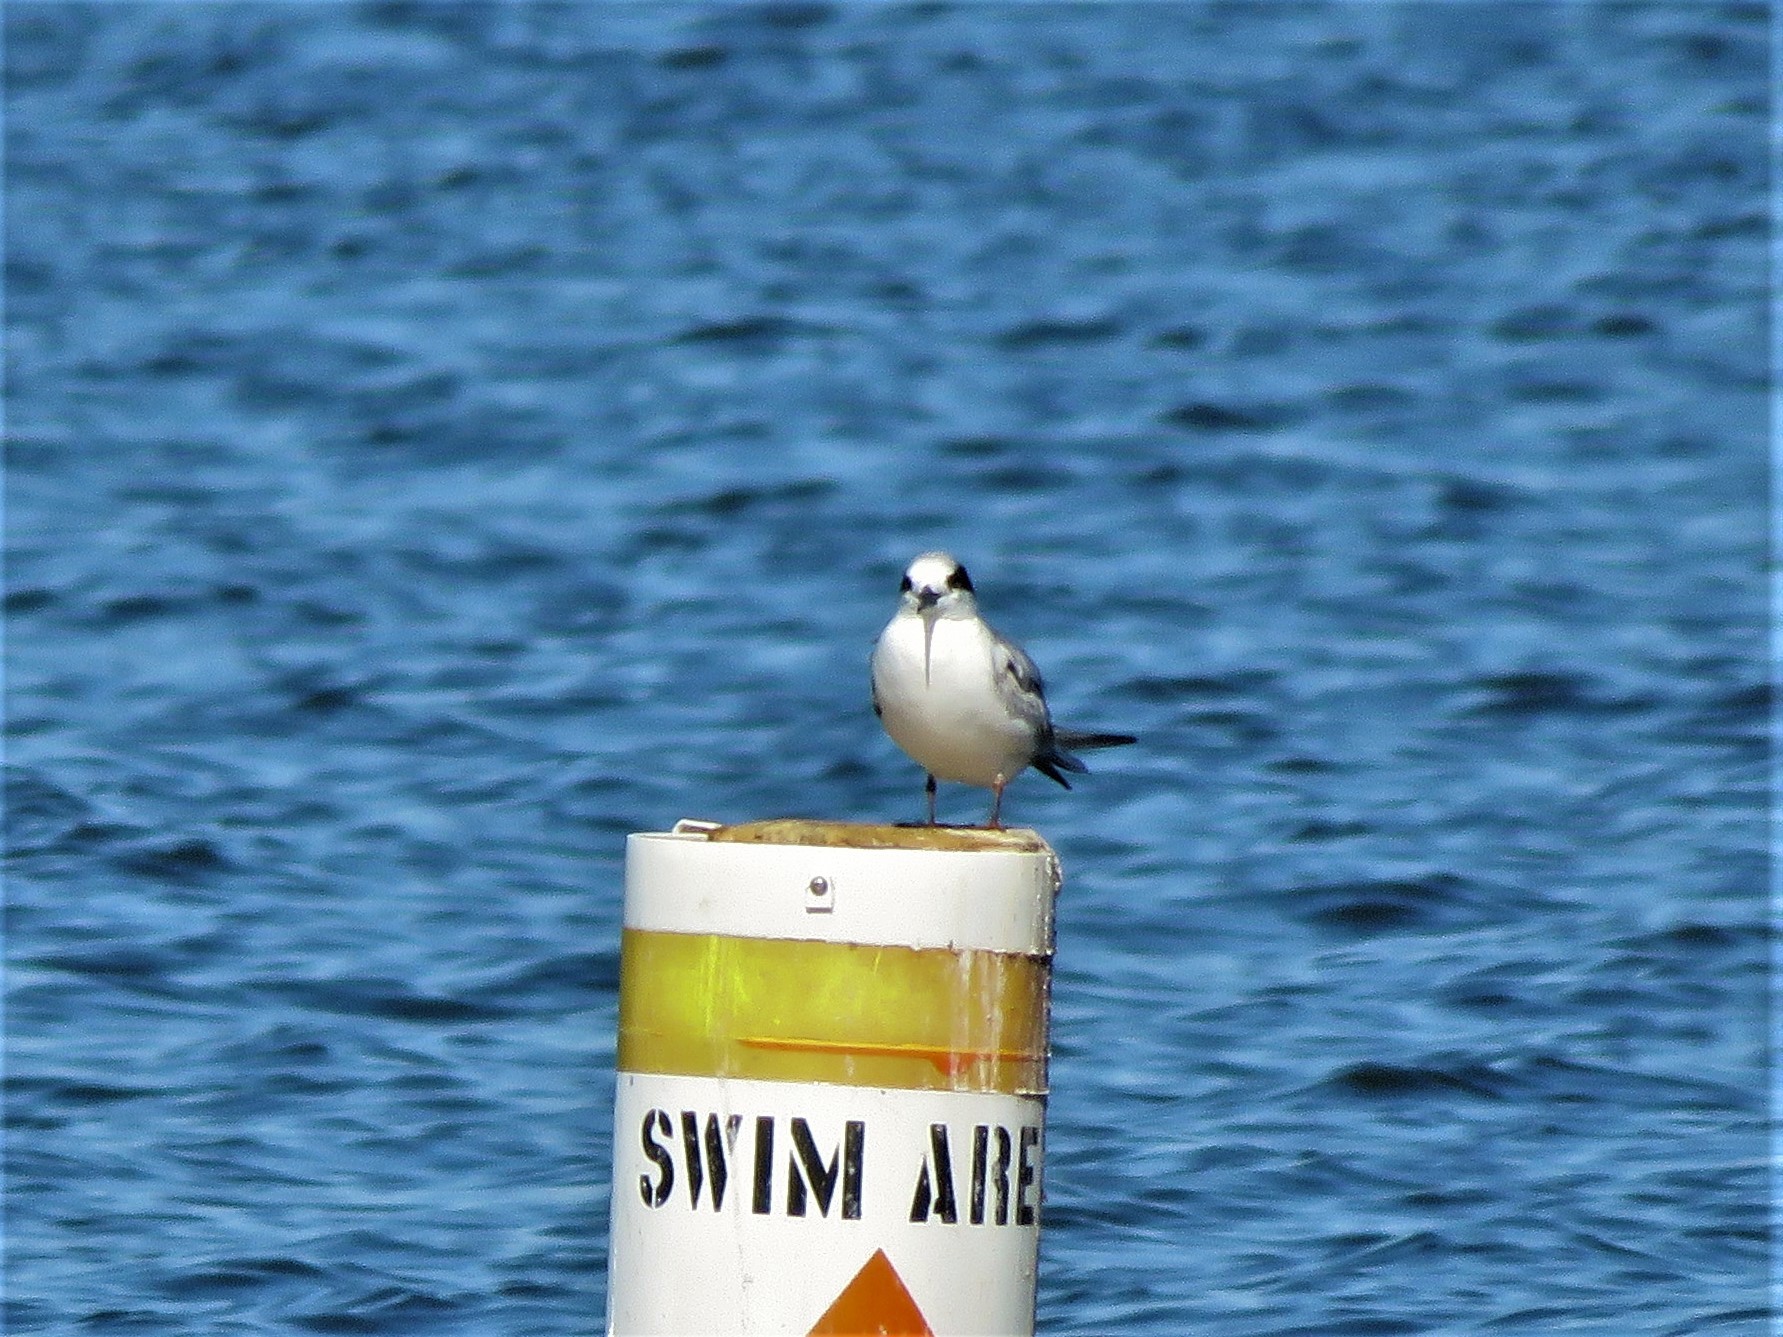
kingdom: Animalia
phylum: Chordata
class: Aves
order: Charadriiformes
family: Laridae
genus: Sterna
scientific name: Sterna forsteri
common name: Forster's tern
